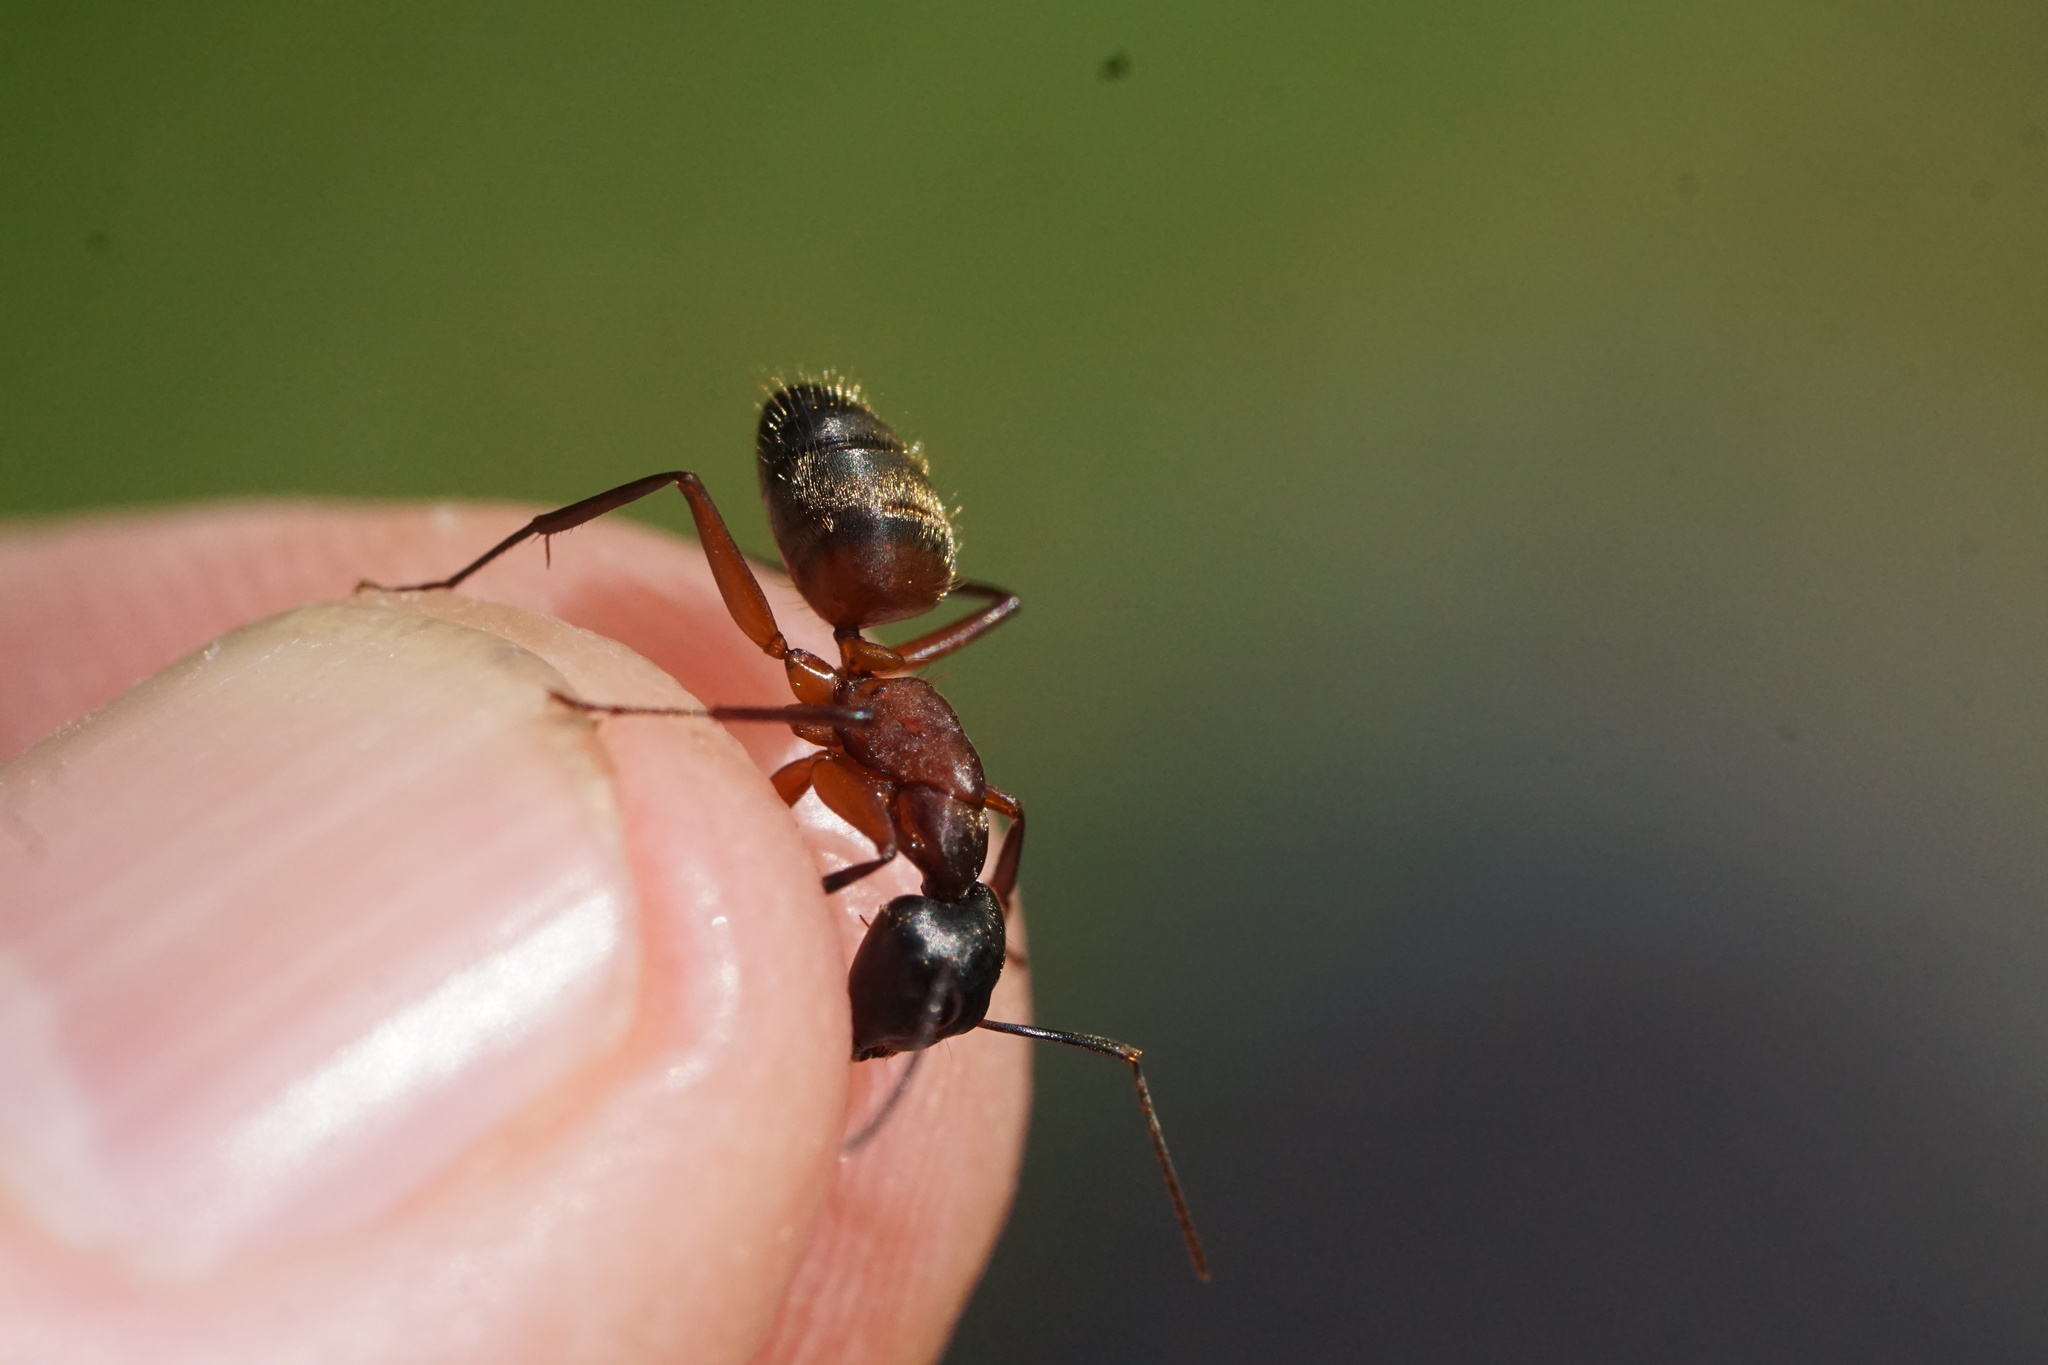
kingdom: Animalia
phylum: Arthropoda
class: Insecta
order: Hymenoptera
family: Formicidae
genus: Camponotus
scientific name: Camponotus chromaiodes
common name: Red carpenter ant
